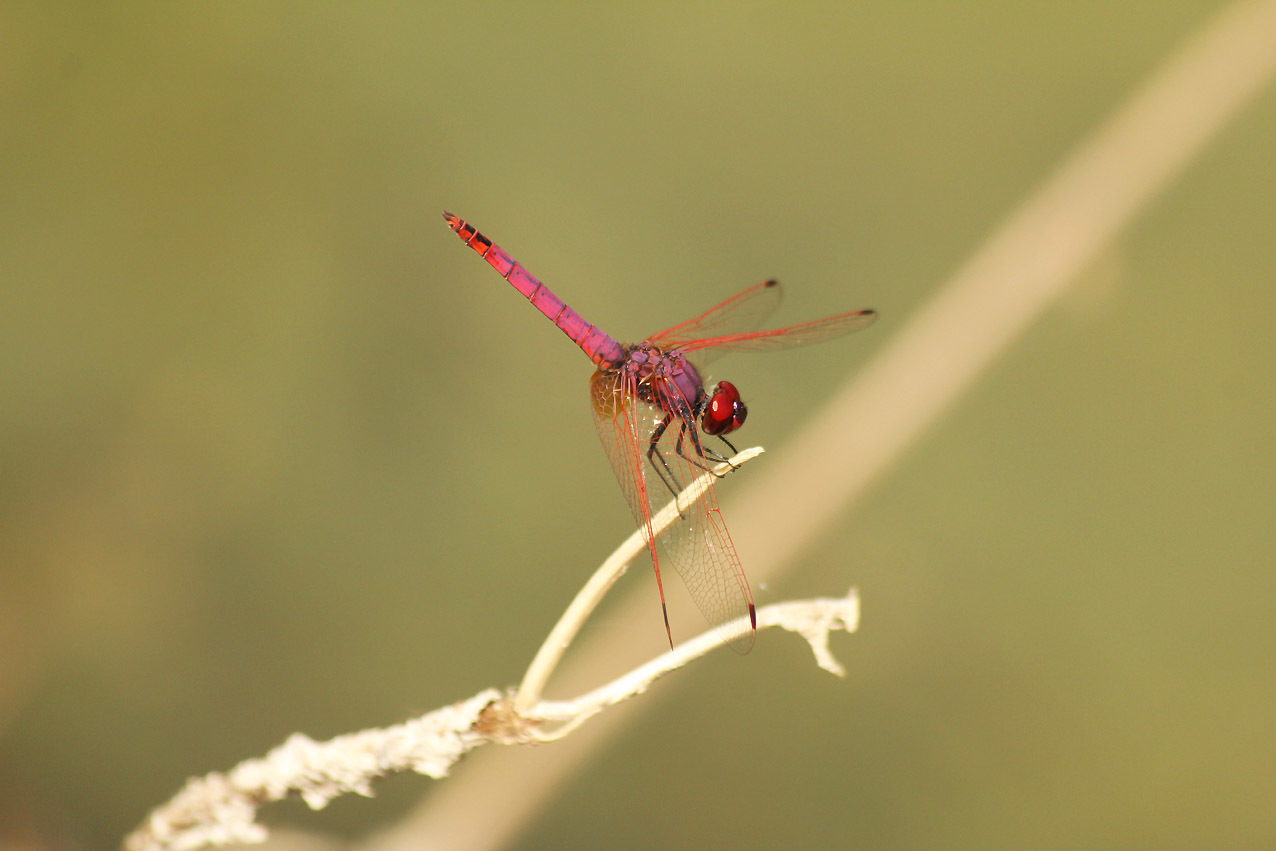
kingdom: Animalia
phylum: Arthropoda
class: Insecta
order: Odonata
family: Libellulidae
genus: Trithemis
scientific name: Trithemis annulata
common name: Violet dropwing
